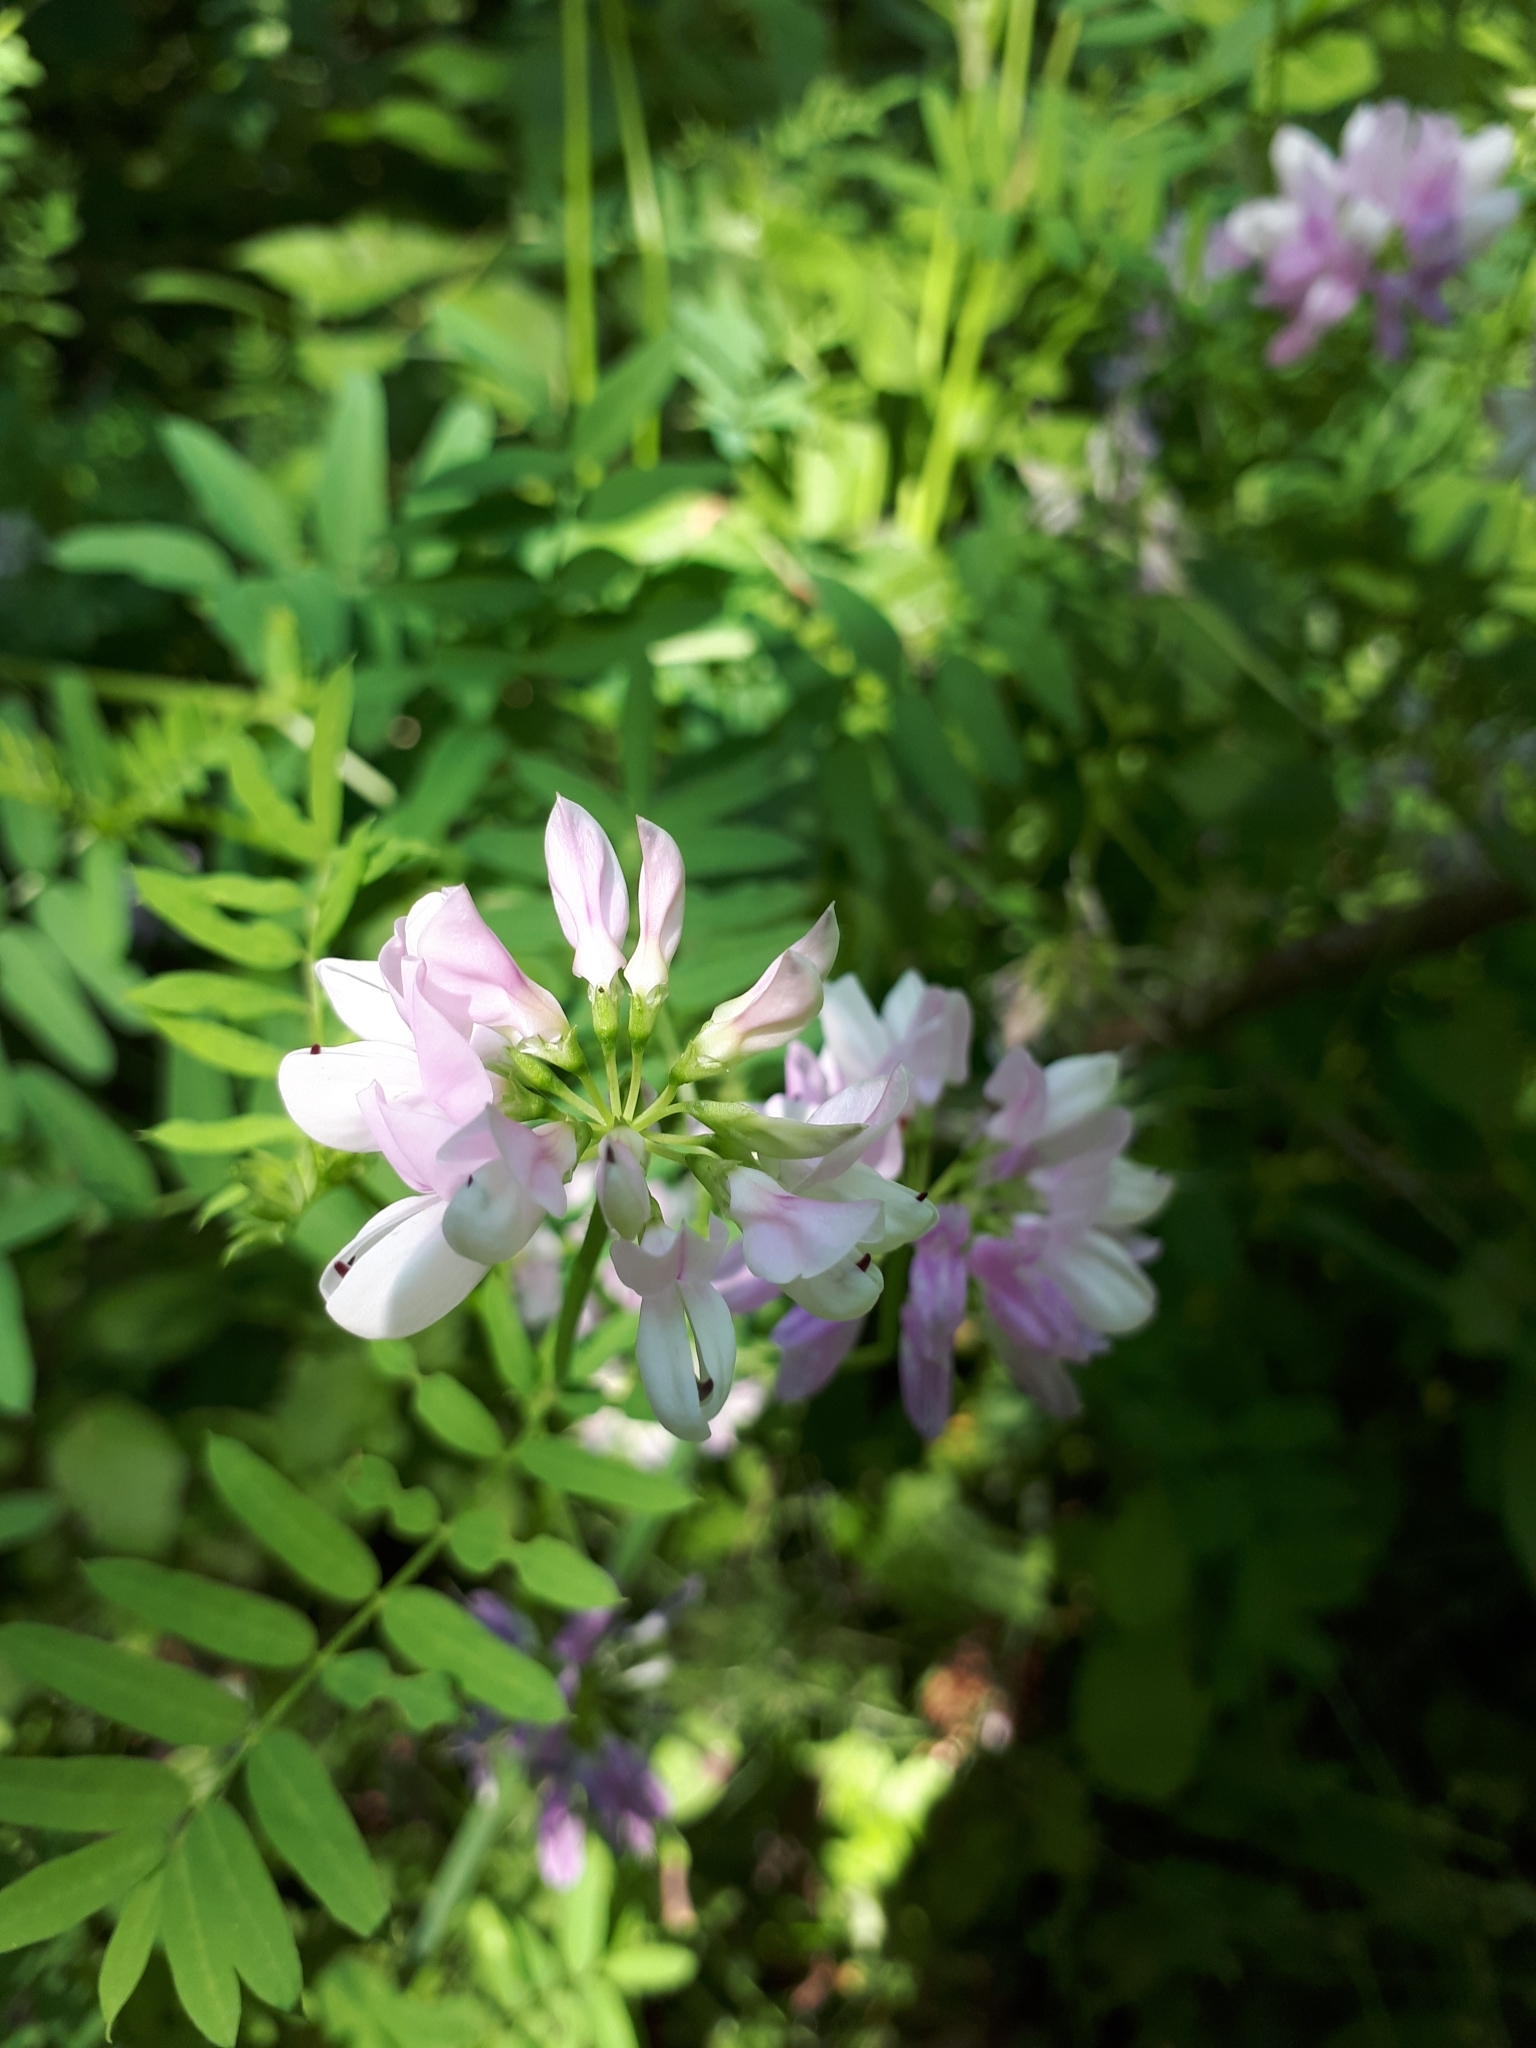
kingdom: Plantae
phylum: Tracheophyta
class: Magnoliopsida
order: Fabales
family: Fabaceae
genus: Coronilla
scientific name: Coronilla varia
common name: Crownvetch
